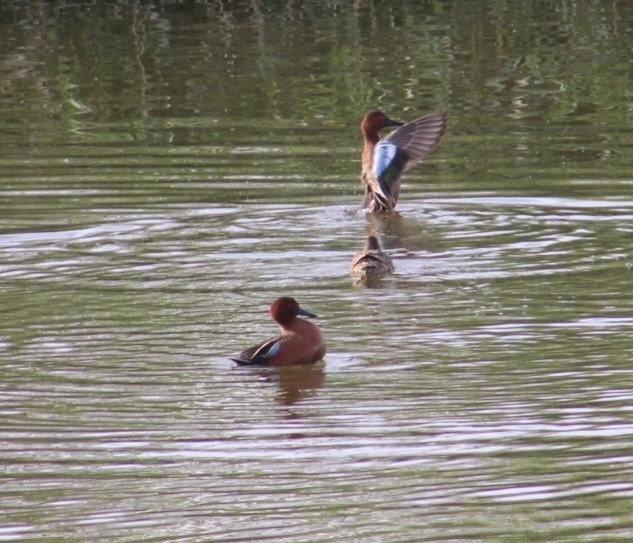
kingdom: Animalia
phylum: Chordata
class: Aves
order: Anseriformes
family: Anatidae
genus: Spatula
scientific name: Spatula cyanoptera
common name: Cinnamon teal
